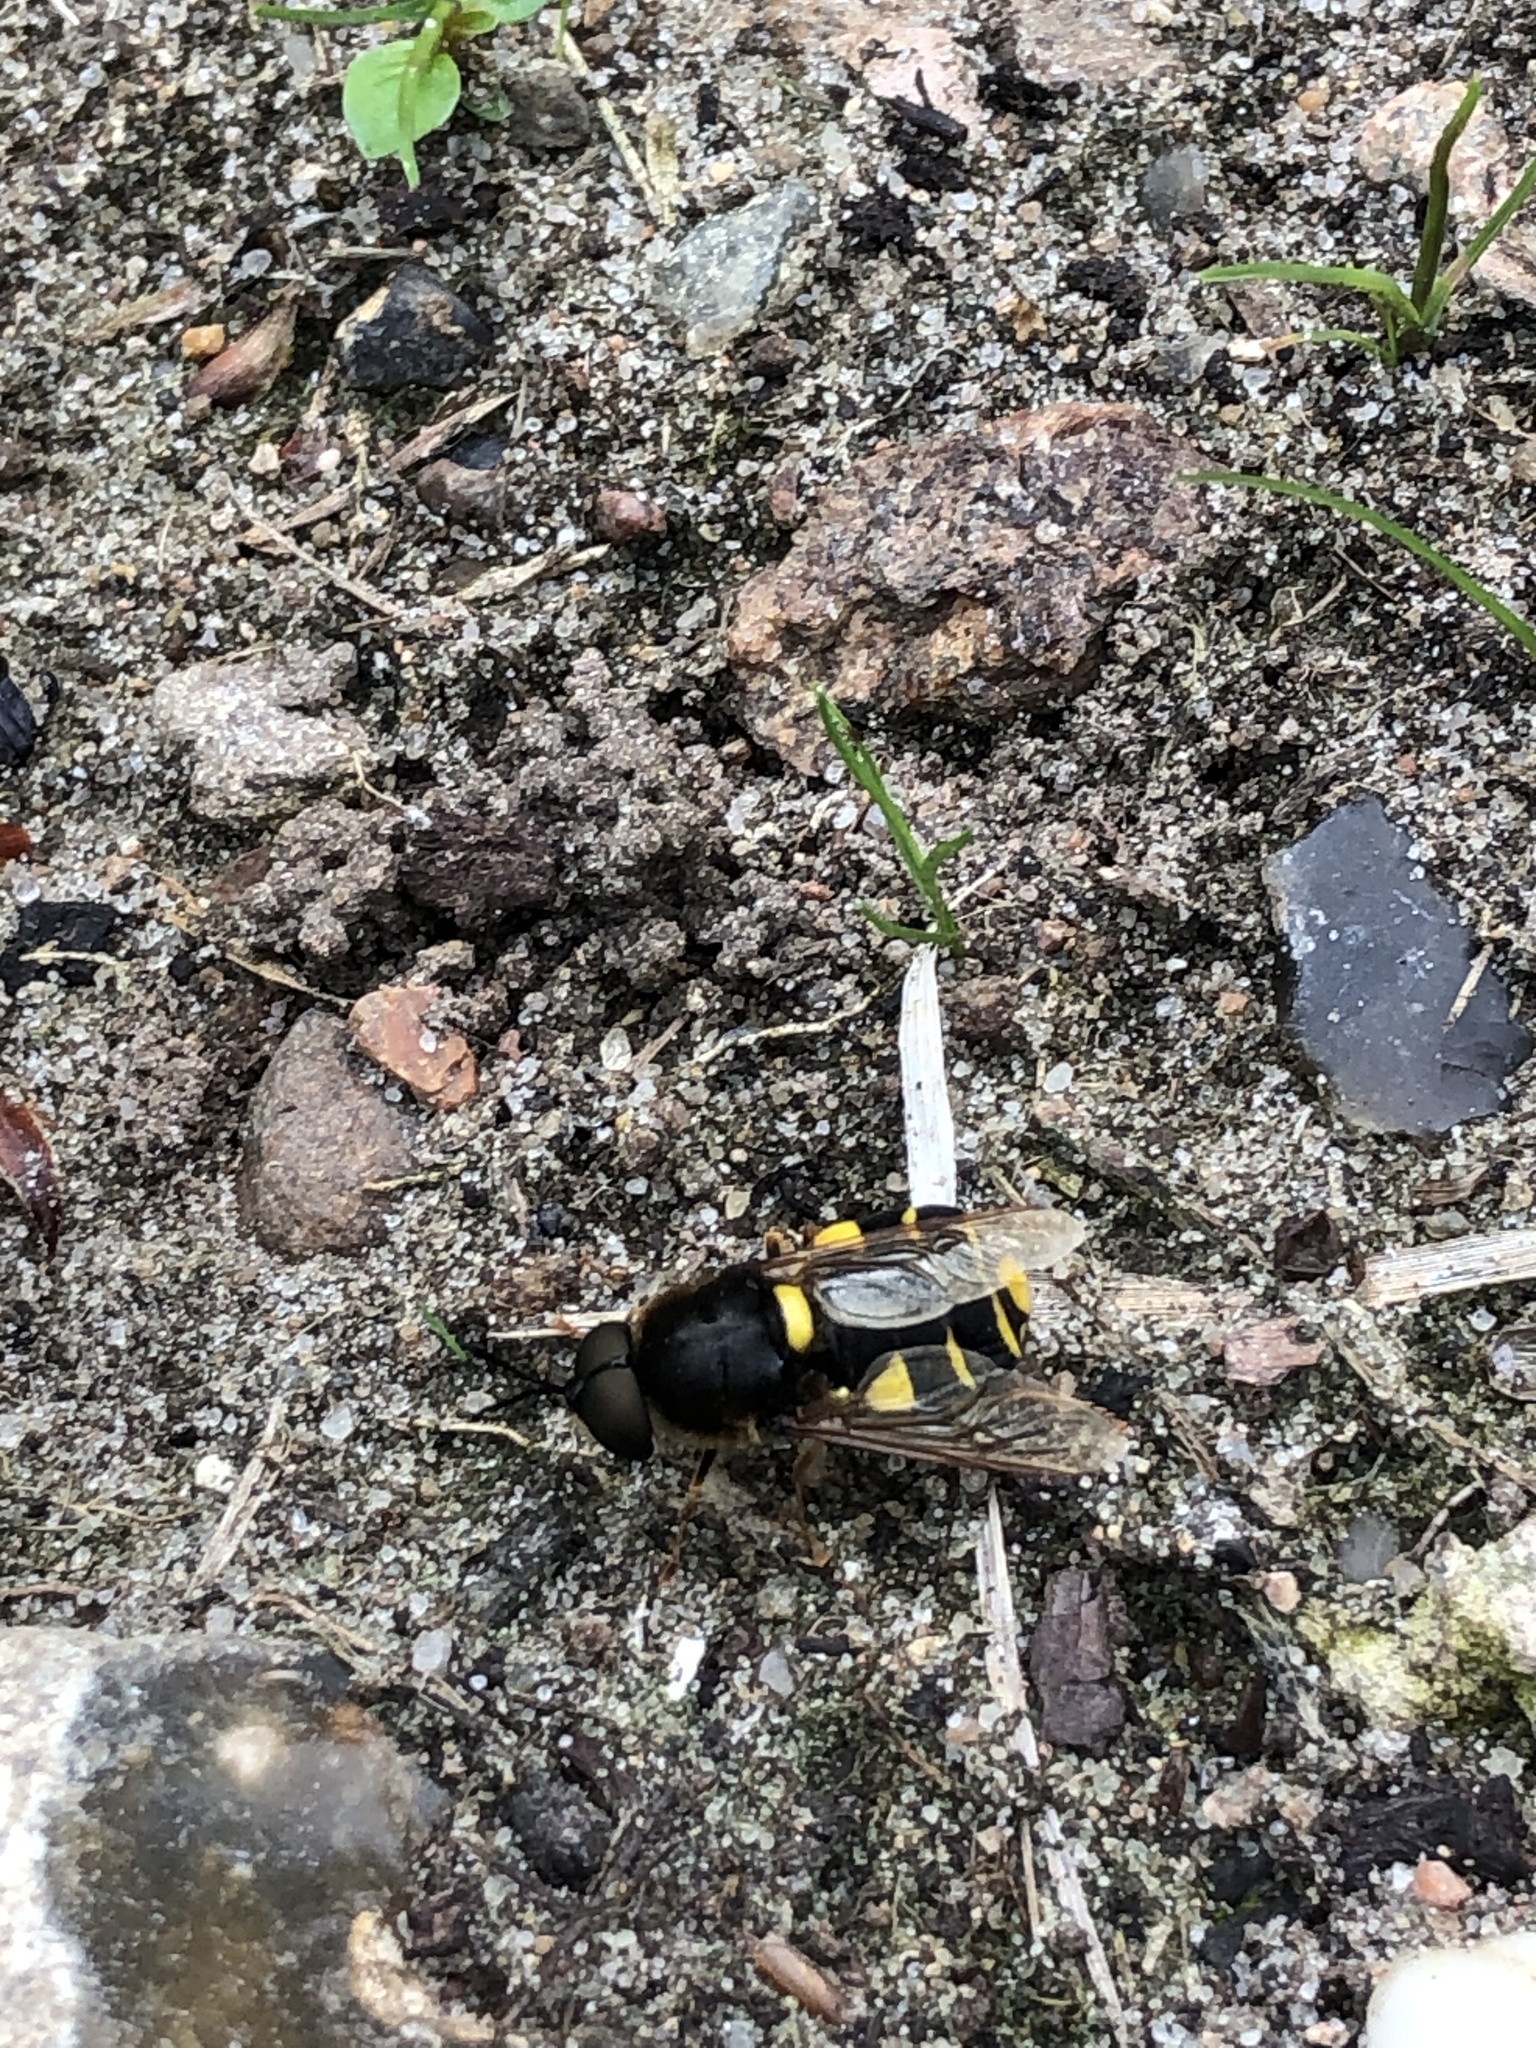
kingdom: Animalia
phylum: Arthropoda
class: Insecta
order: Diptera
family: Stratiomyidae
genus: Stratiomys
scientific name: Stratiomys potamida
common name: Banded general
